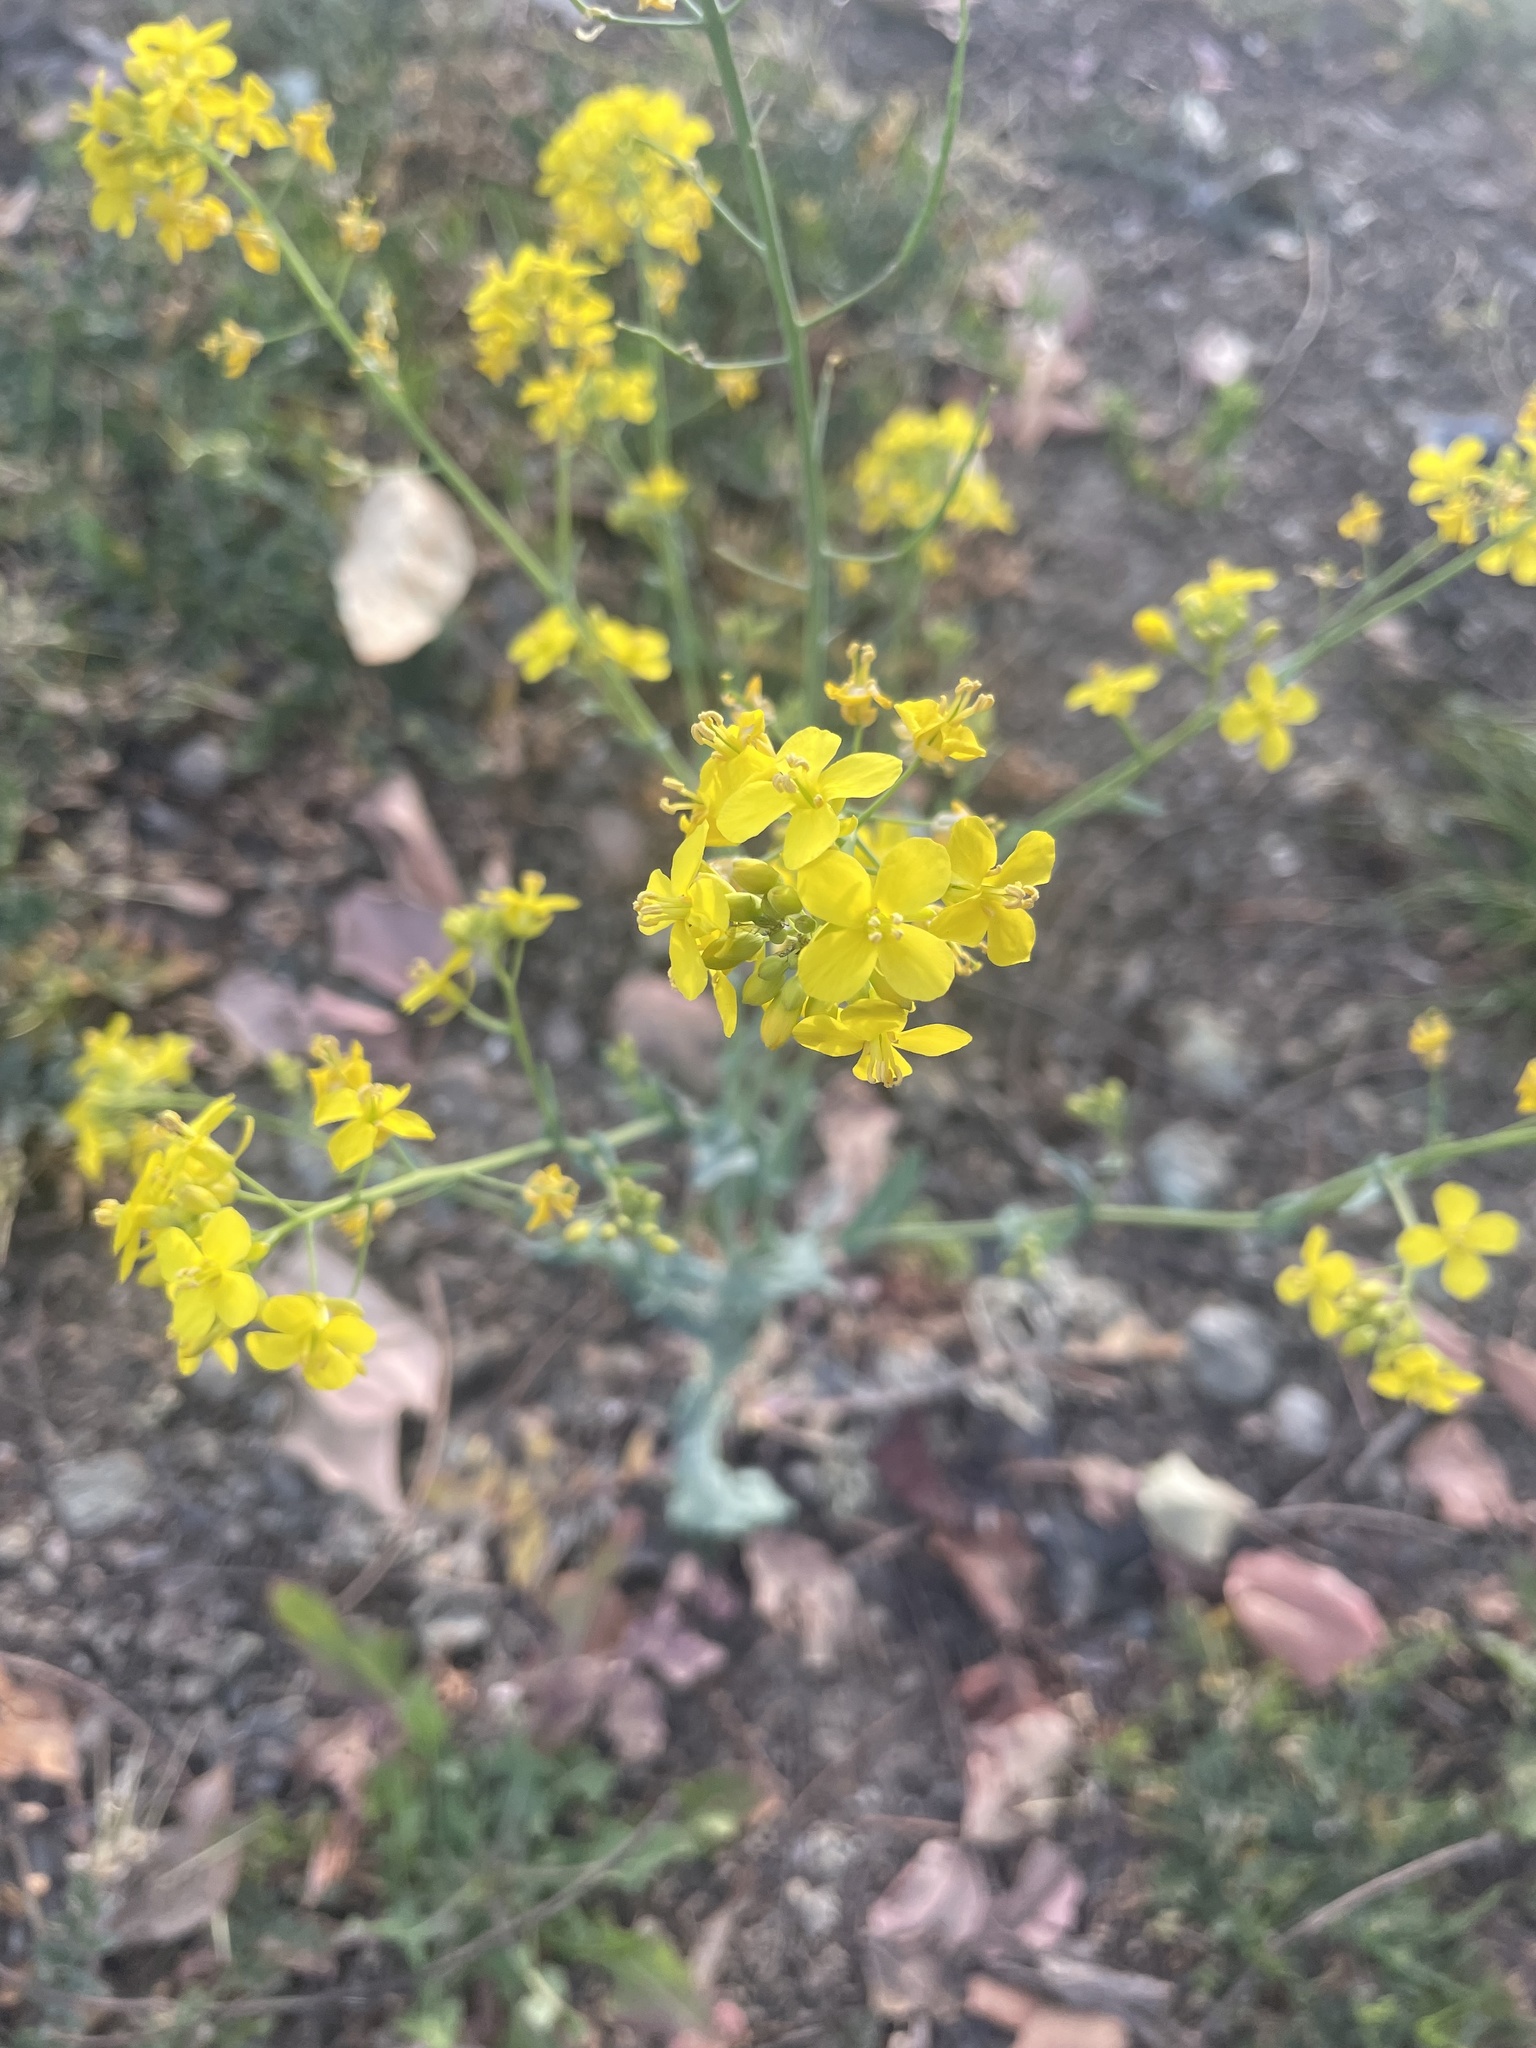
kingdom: Plantae
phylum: Tracheophyta
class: Magnoliopsida
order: Brassicales
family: Brassicaceae
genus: Brassica
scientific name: Brassica napus
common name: Rape
